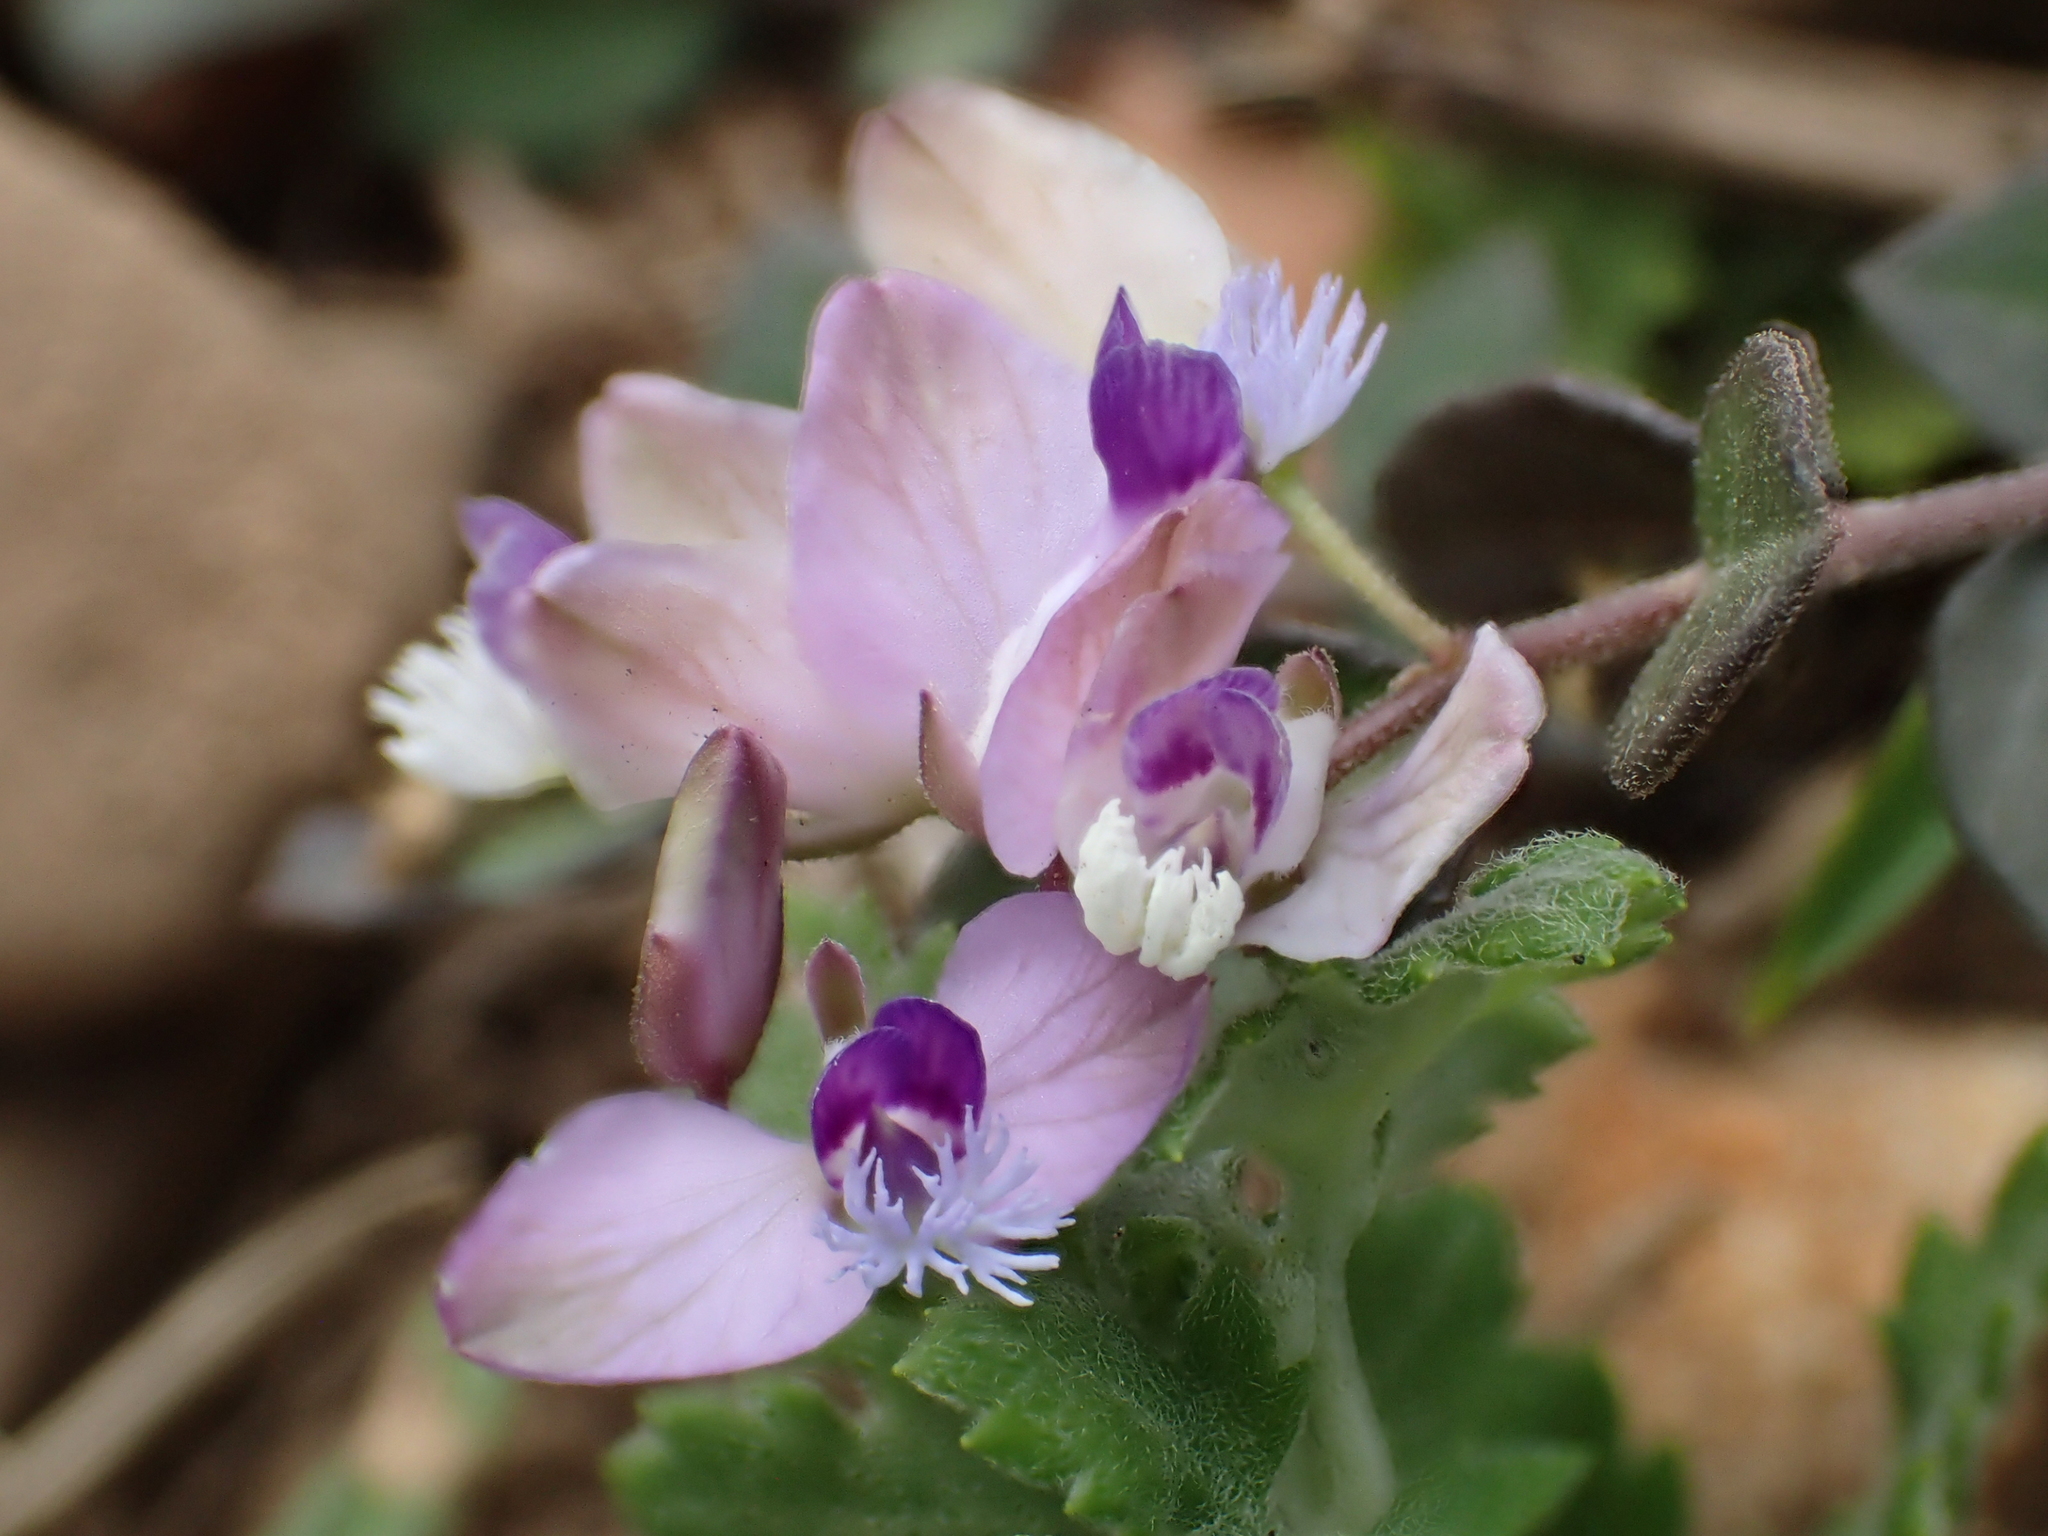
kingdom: Plantae
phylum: Tracheophyta
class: Magnoliopsida
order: Fabales
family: Polygalaceae
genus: Polygala
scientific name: Polygala japonica
